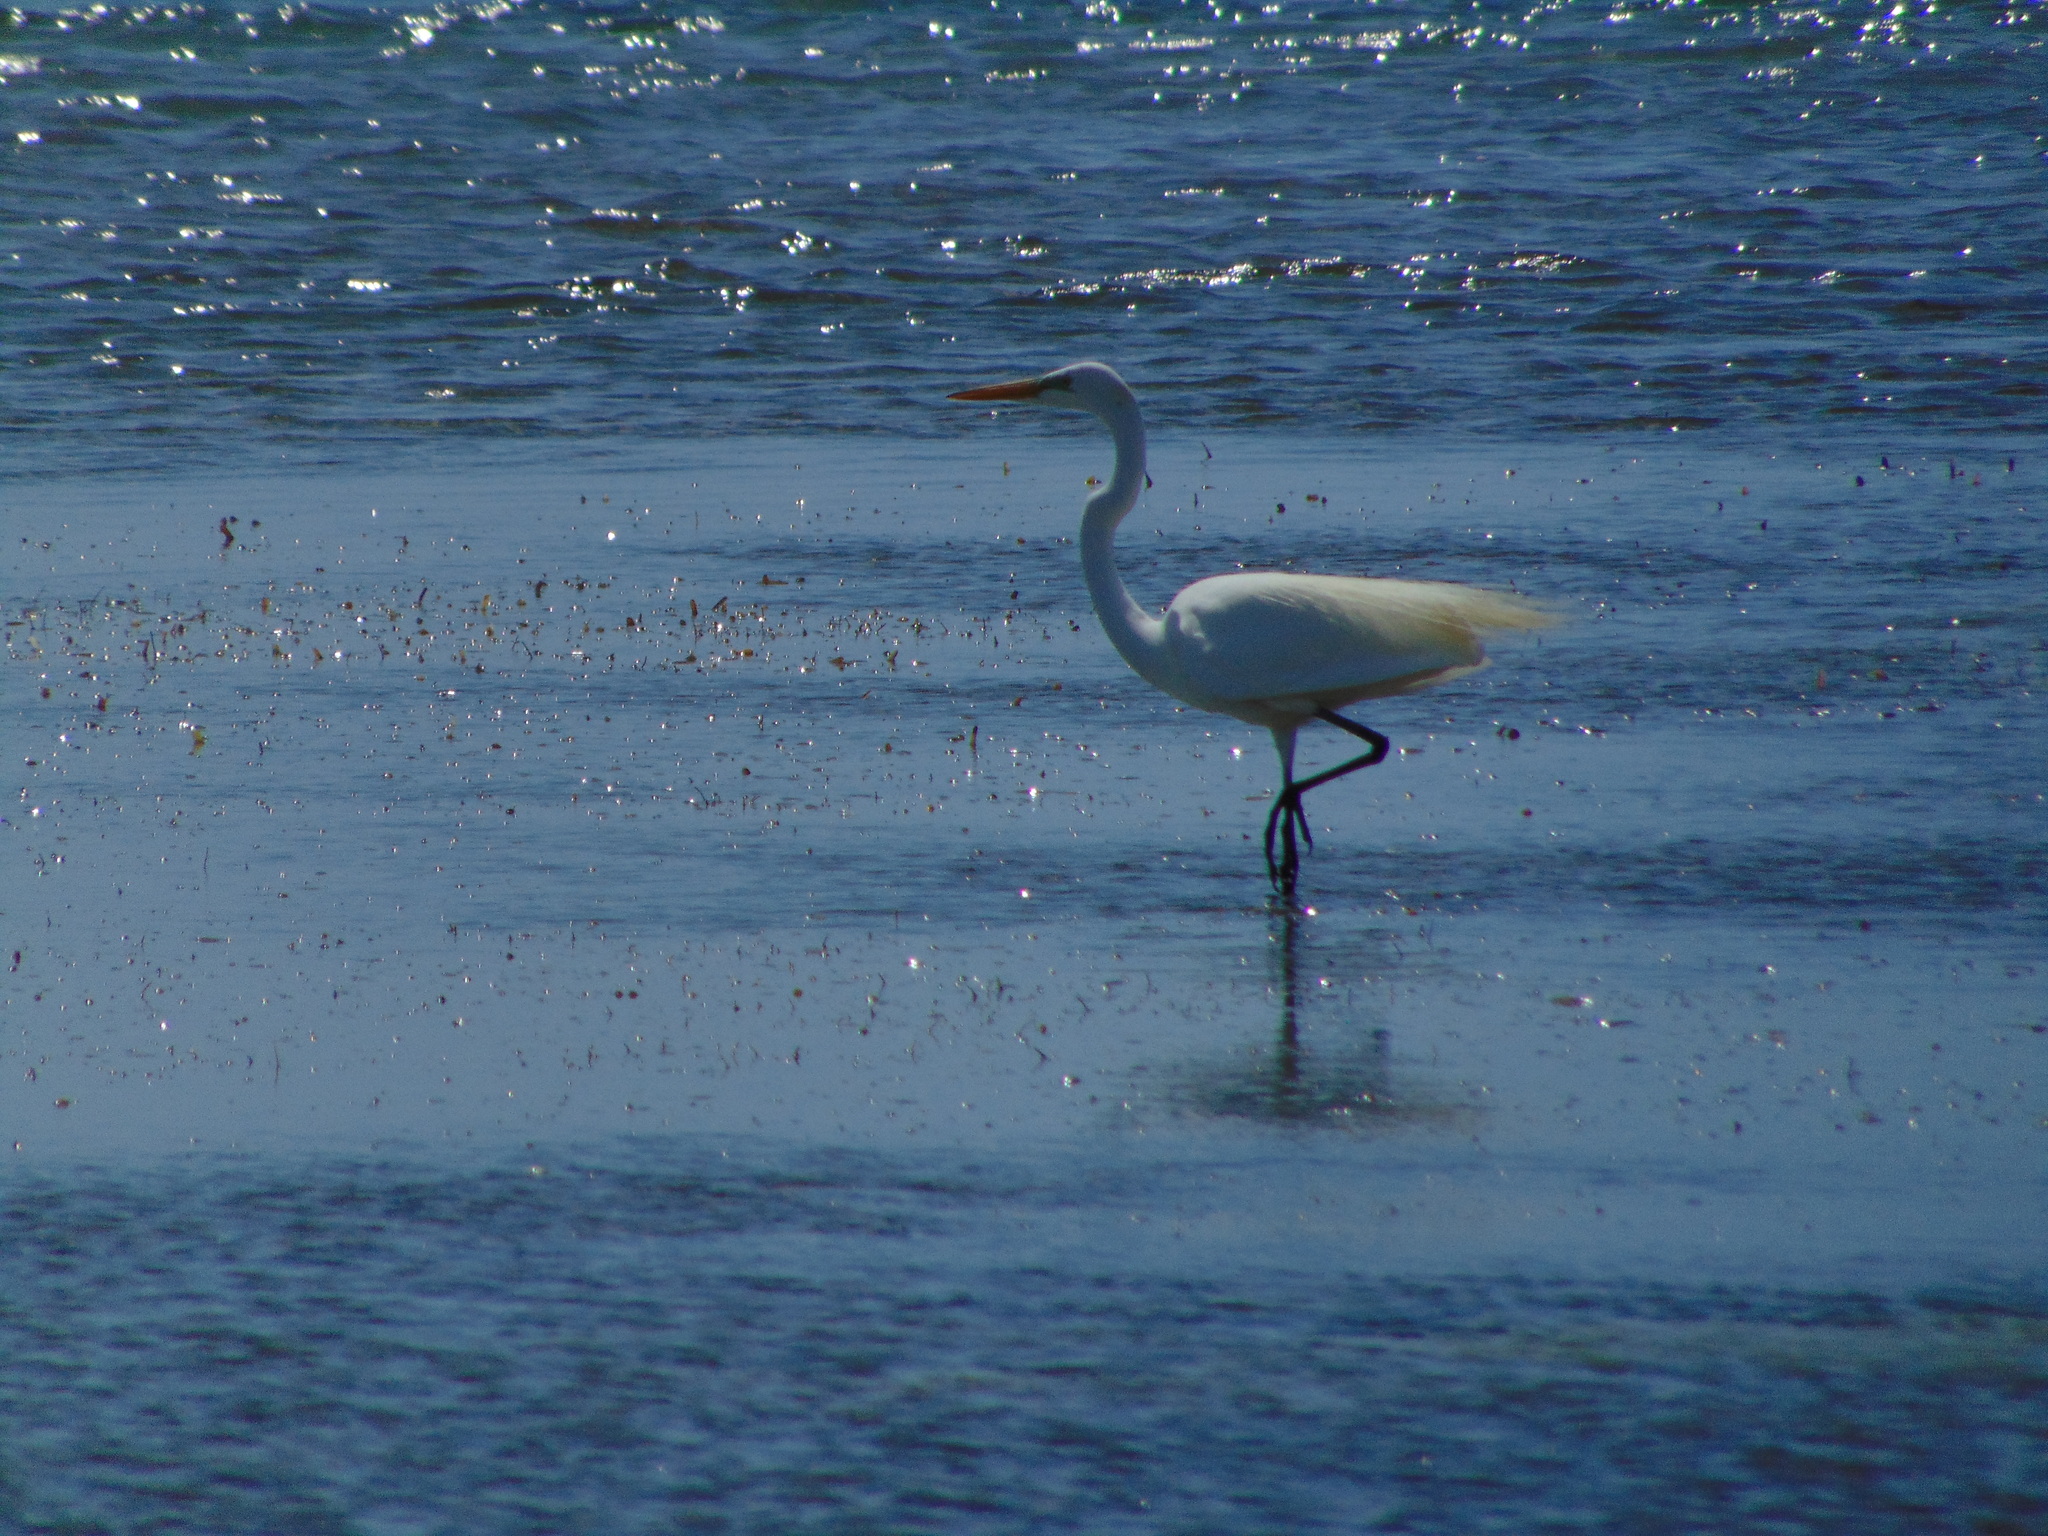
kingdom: Animalia
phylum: Chordata
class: Aves
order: Pelecaniformes
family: Ardeidae
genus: Ardea
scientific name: Ardea alba
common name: Great egret
